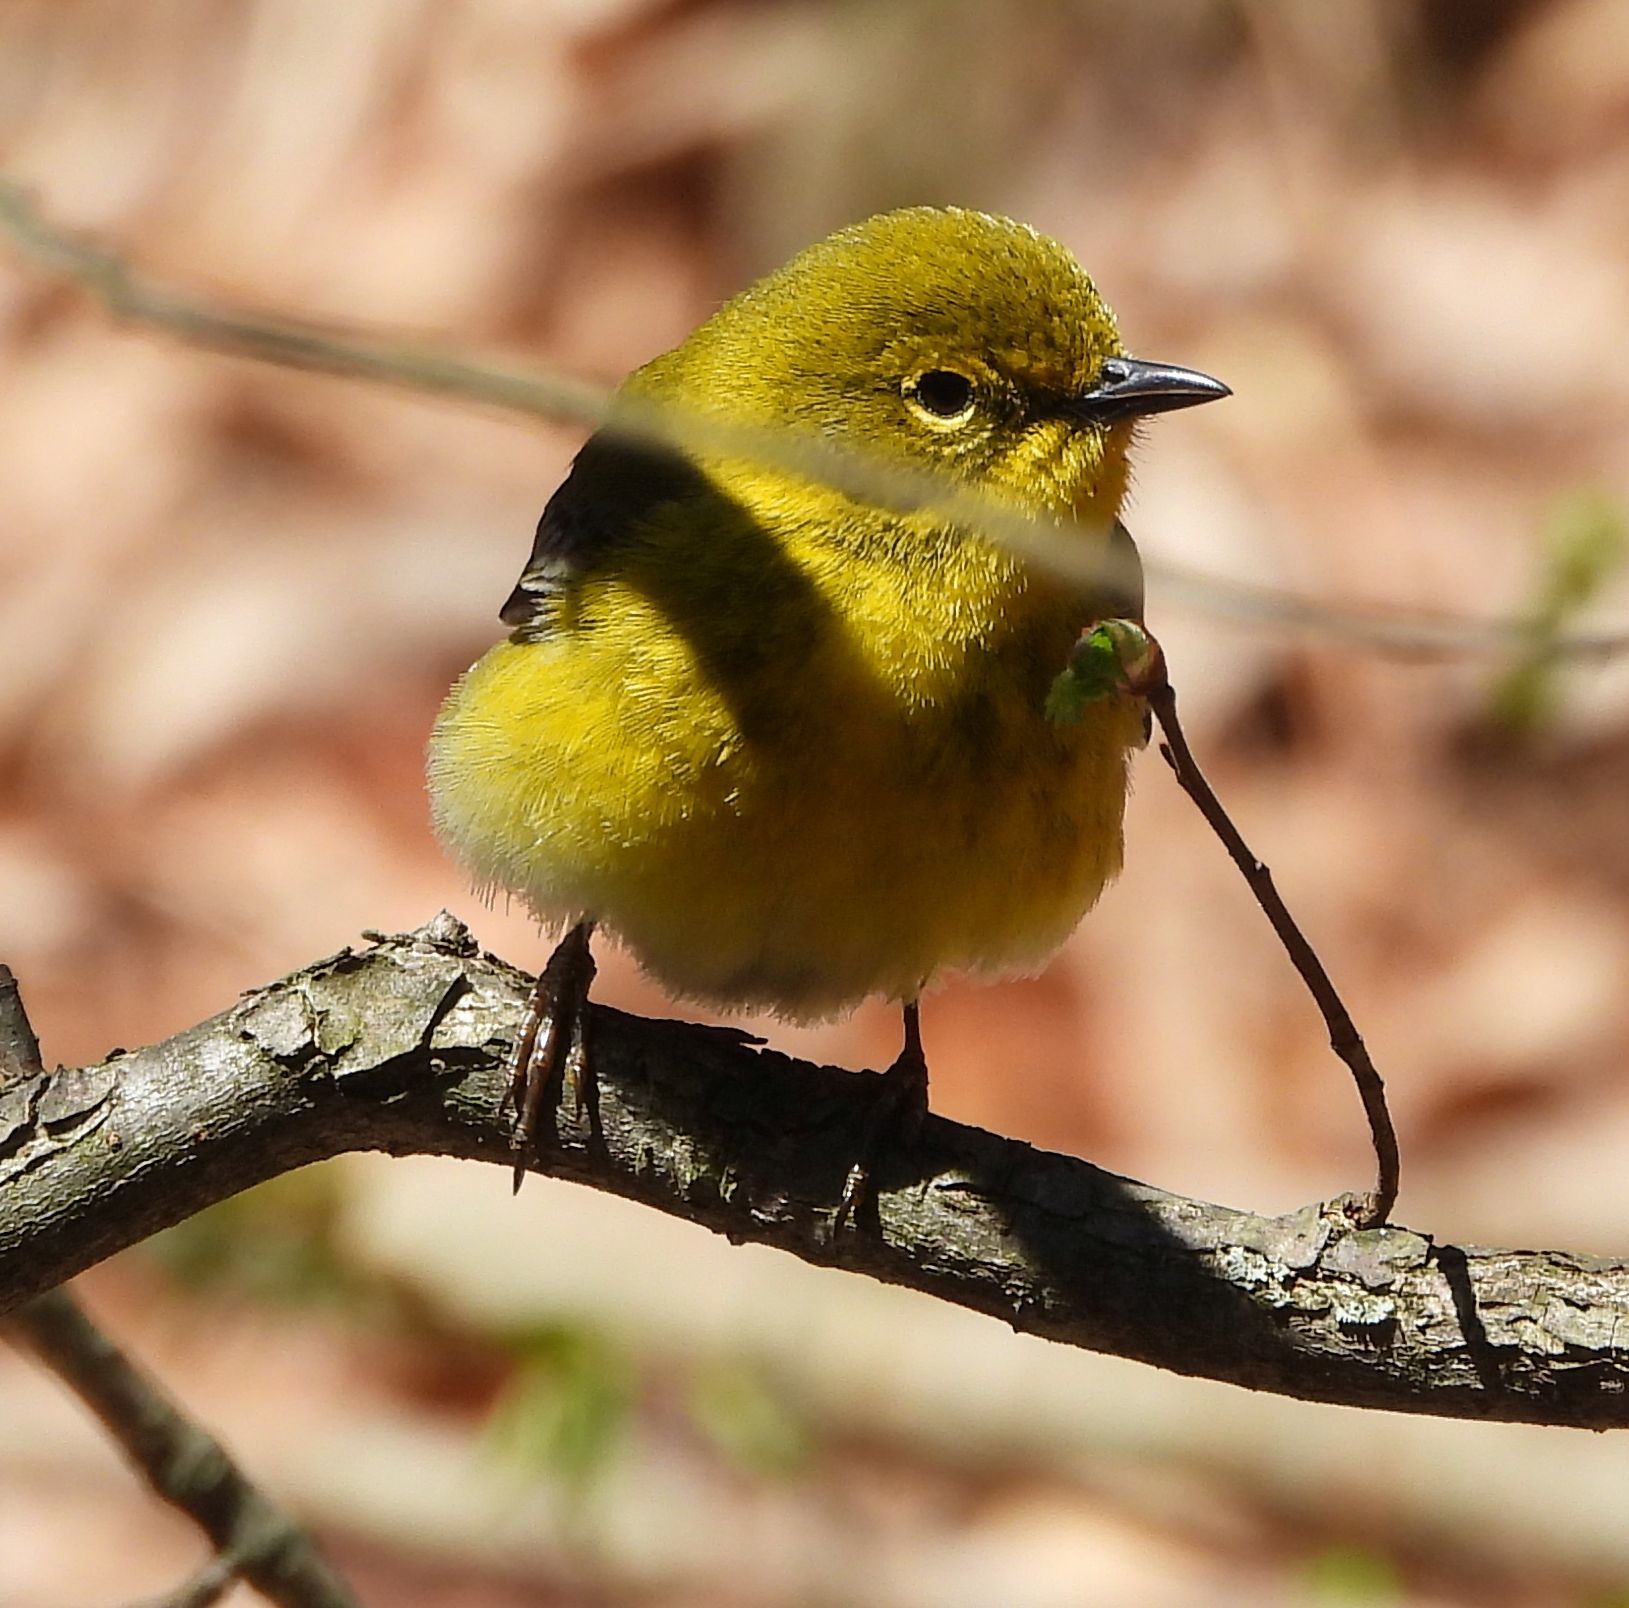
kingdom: Animalia
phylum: Chordata
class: Aves
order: Passeriformes
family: Parulidae
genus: Setophaga
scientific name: Setophaga pinus
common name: Pine warbler
